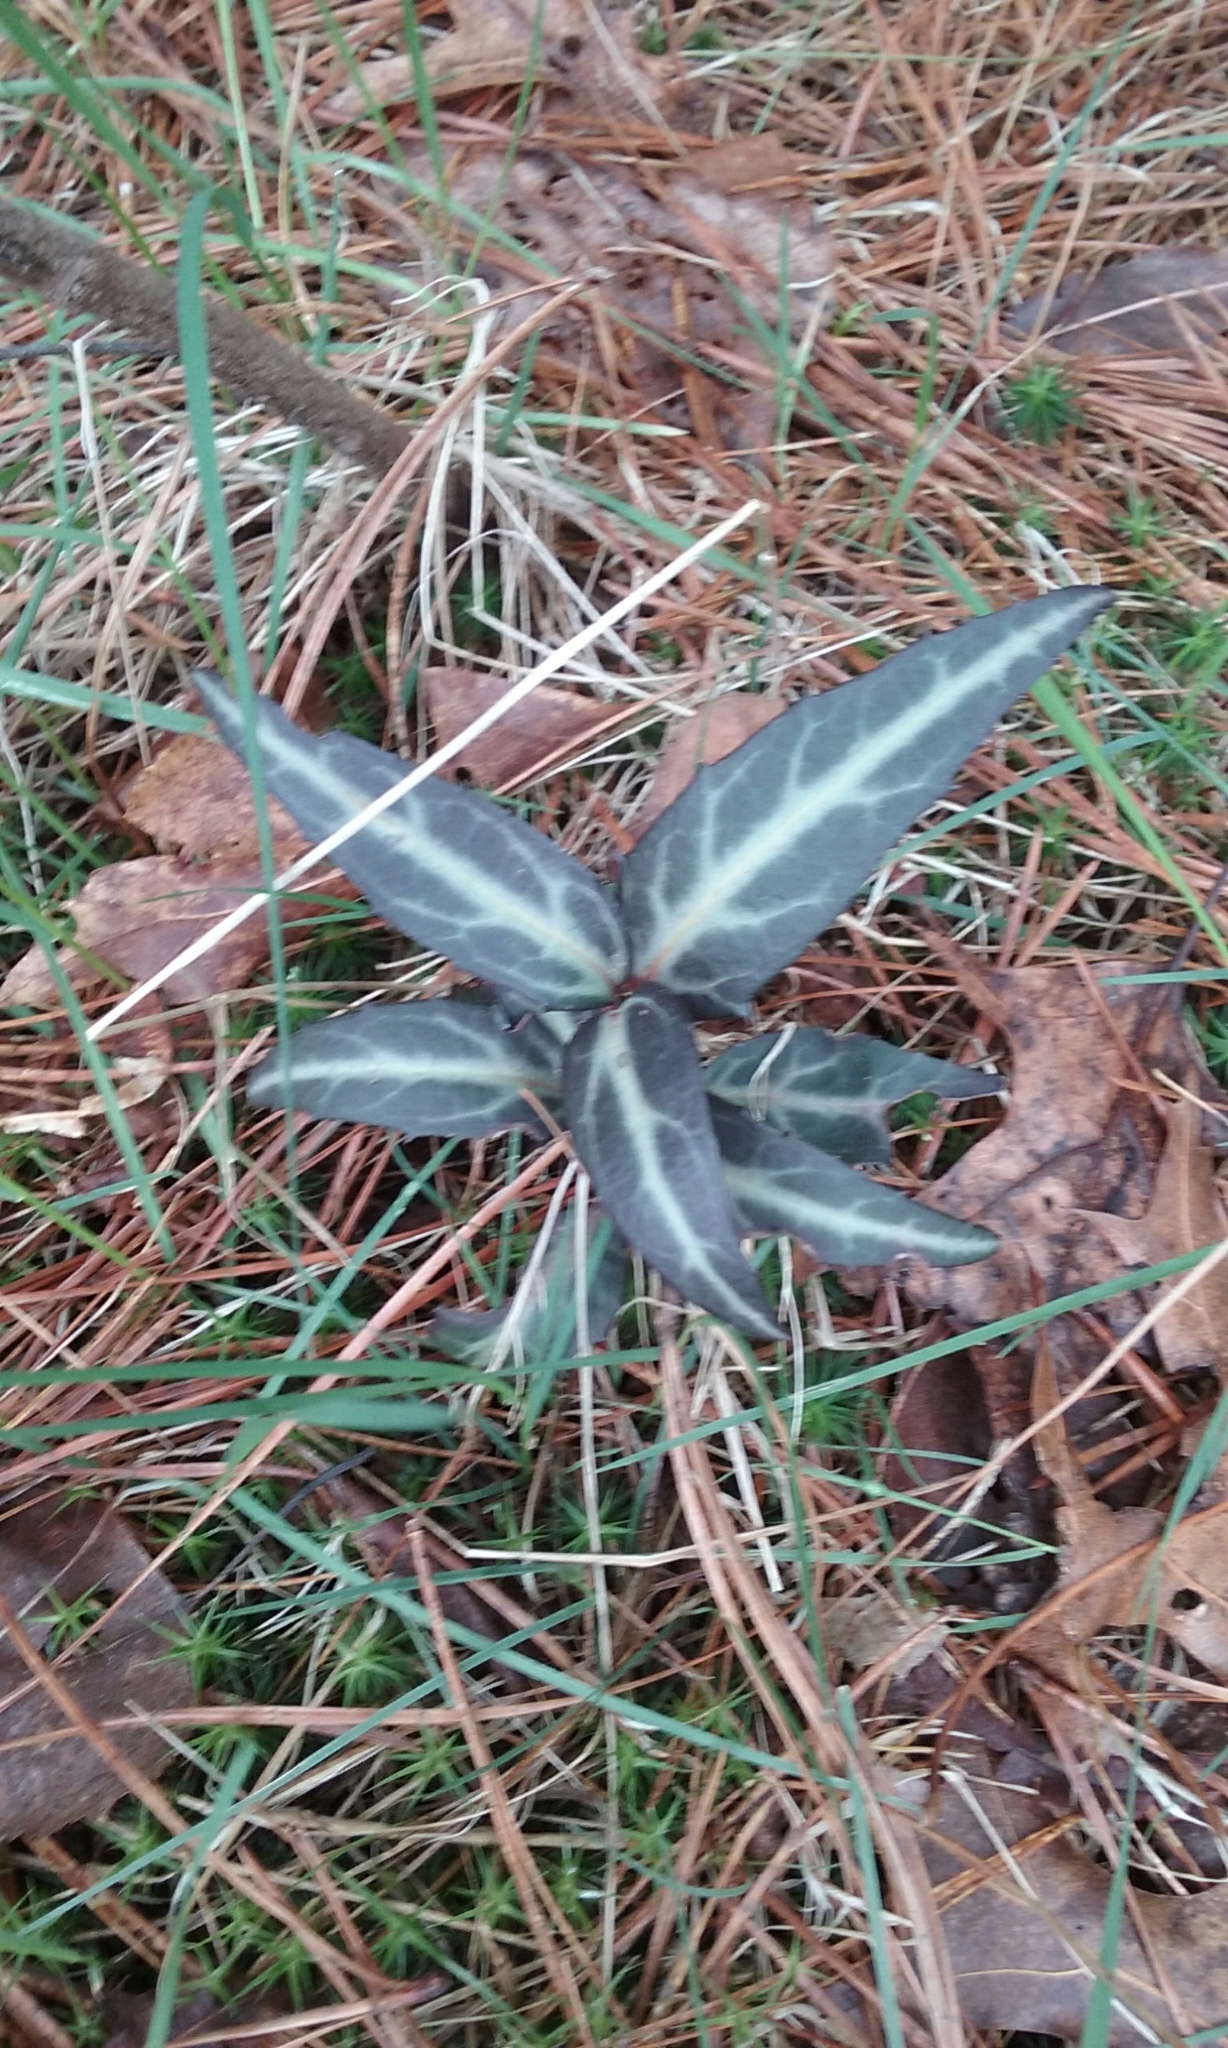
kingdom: Plantae
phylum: Tracheophyta
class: Magnoliopsida
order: Ericales
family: Ericaceae
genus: Chimaphila
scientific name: Chimaphila maculata
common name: Spotted pipsissewa
